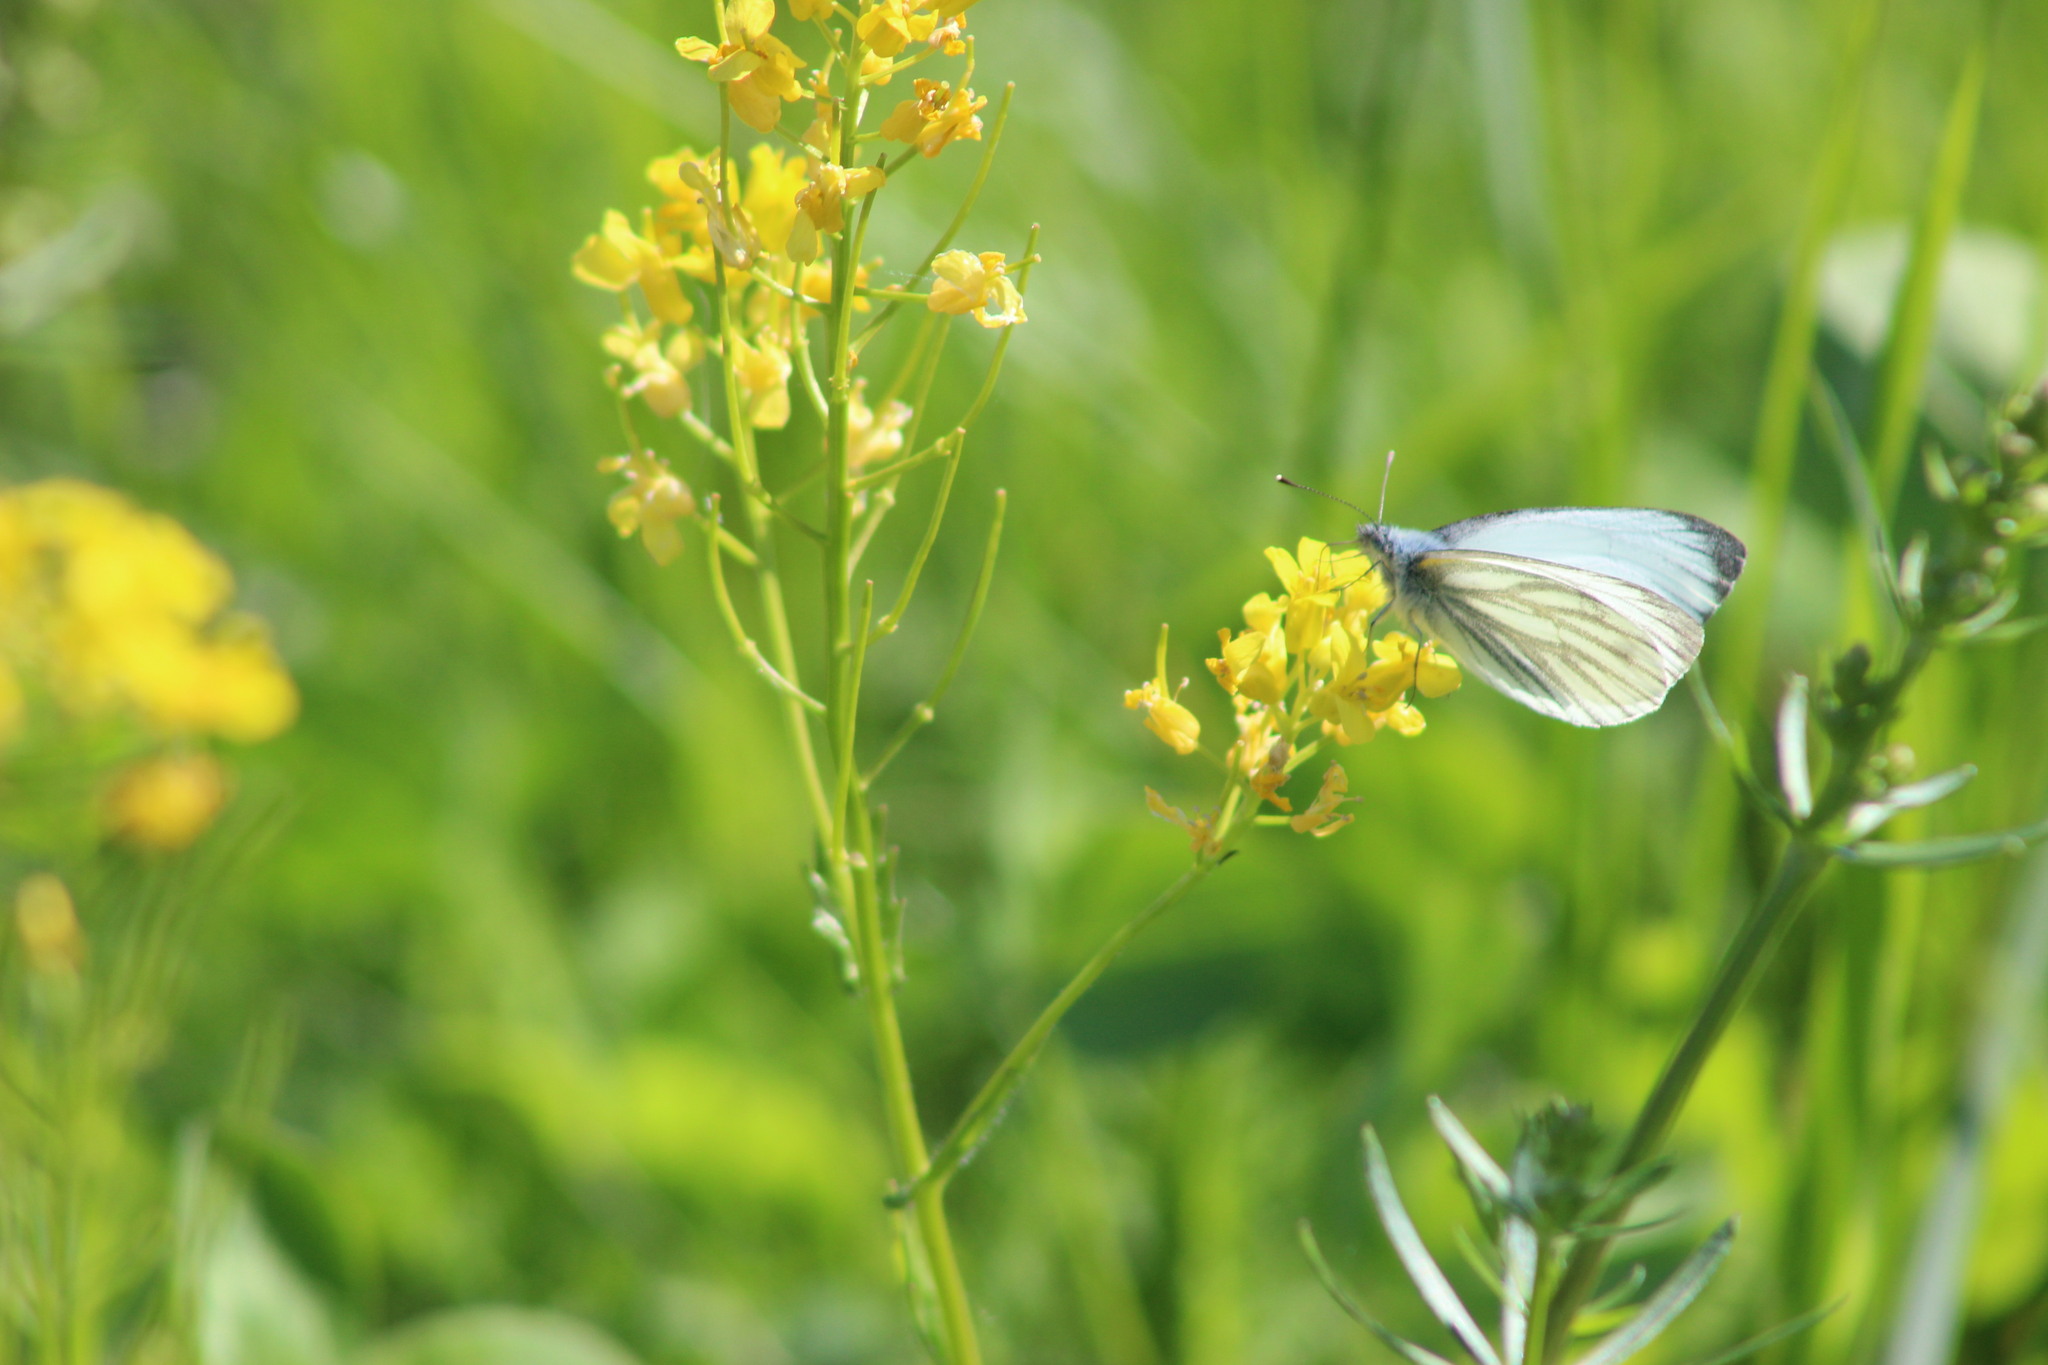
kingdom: Animalia
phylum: Arthropoda
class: Insecta
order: Lepidoptera
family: Pieridae
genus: Pieris
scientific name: Pieris napi
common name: Green-veined white
